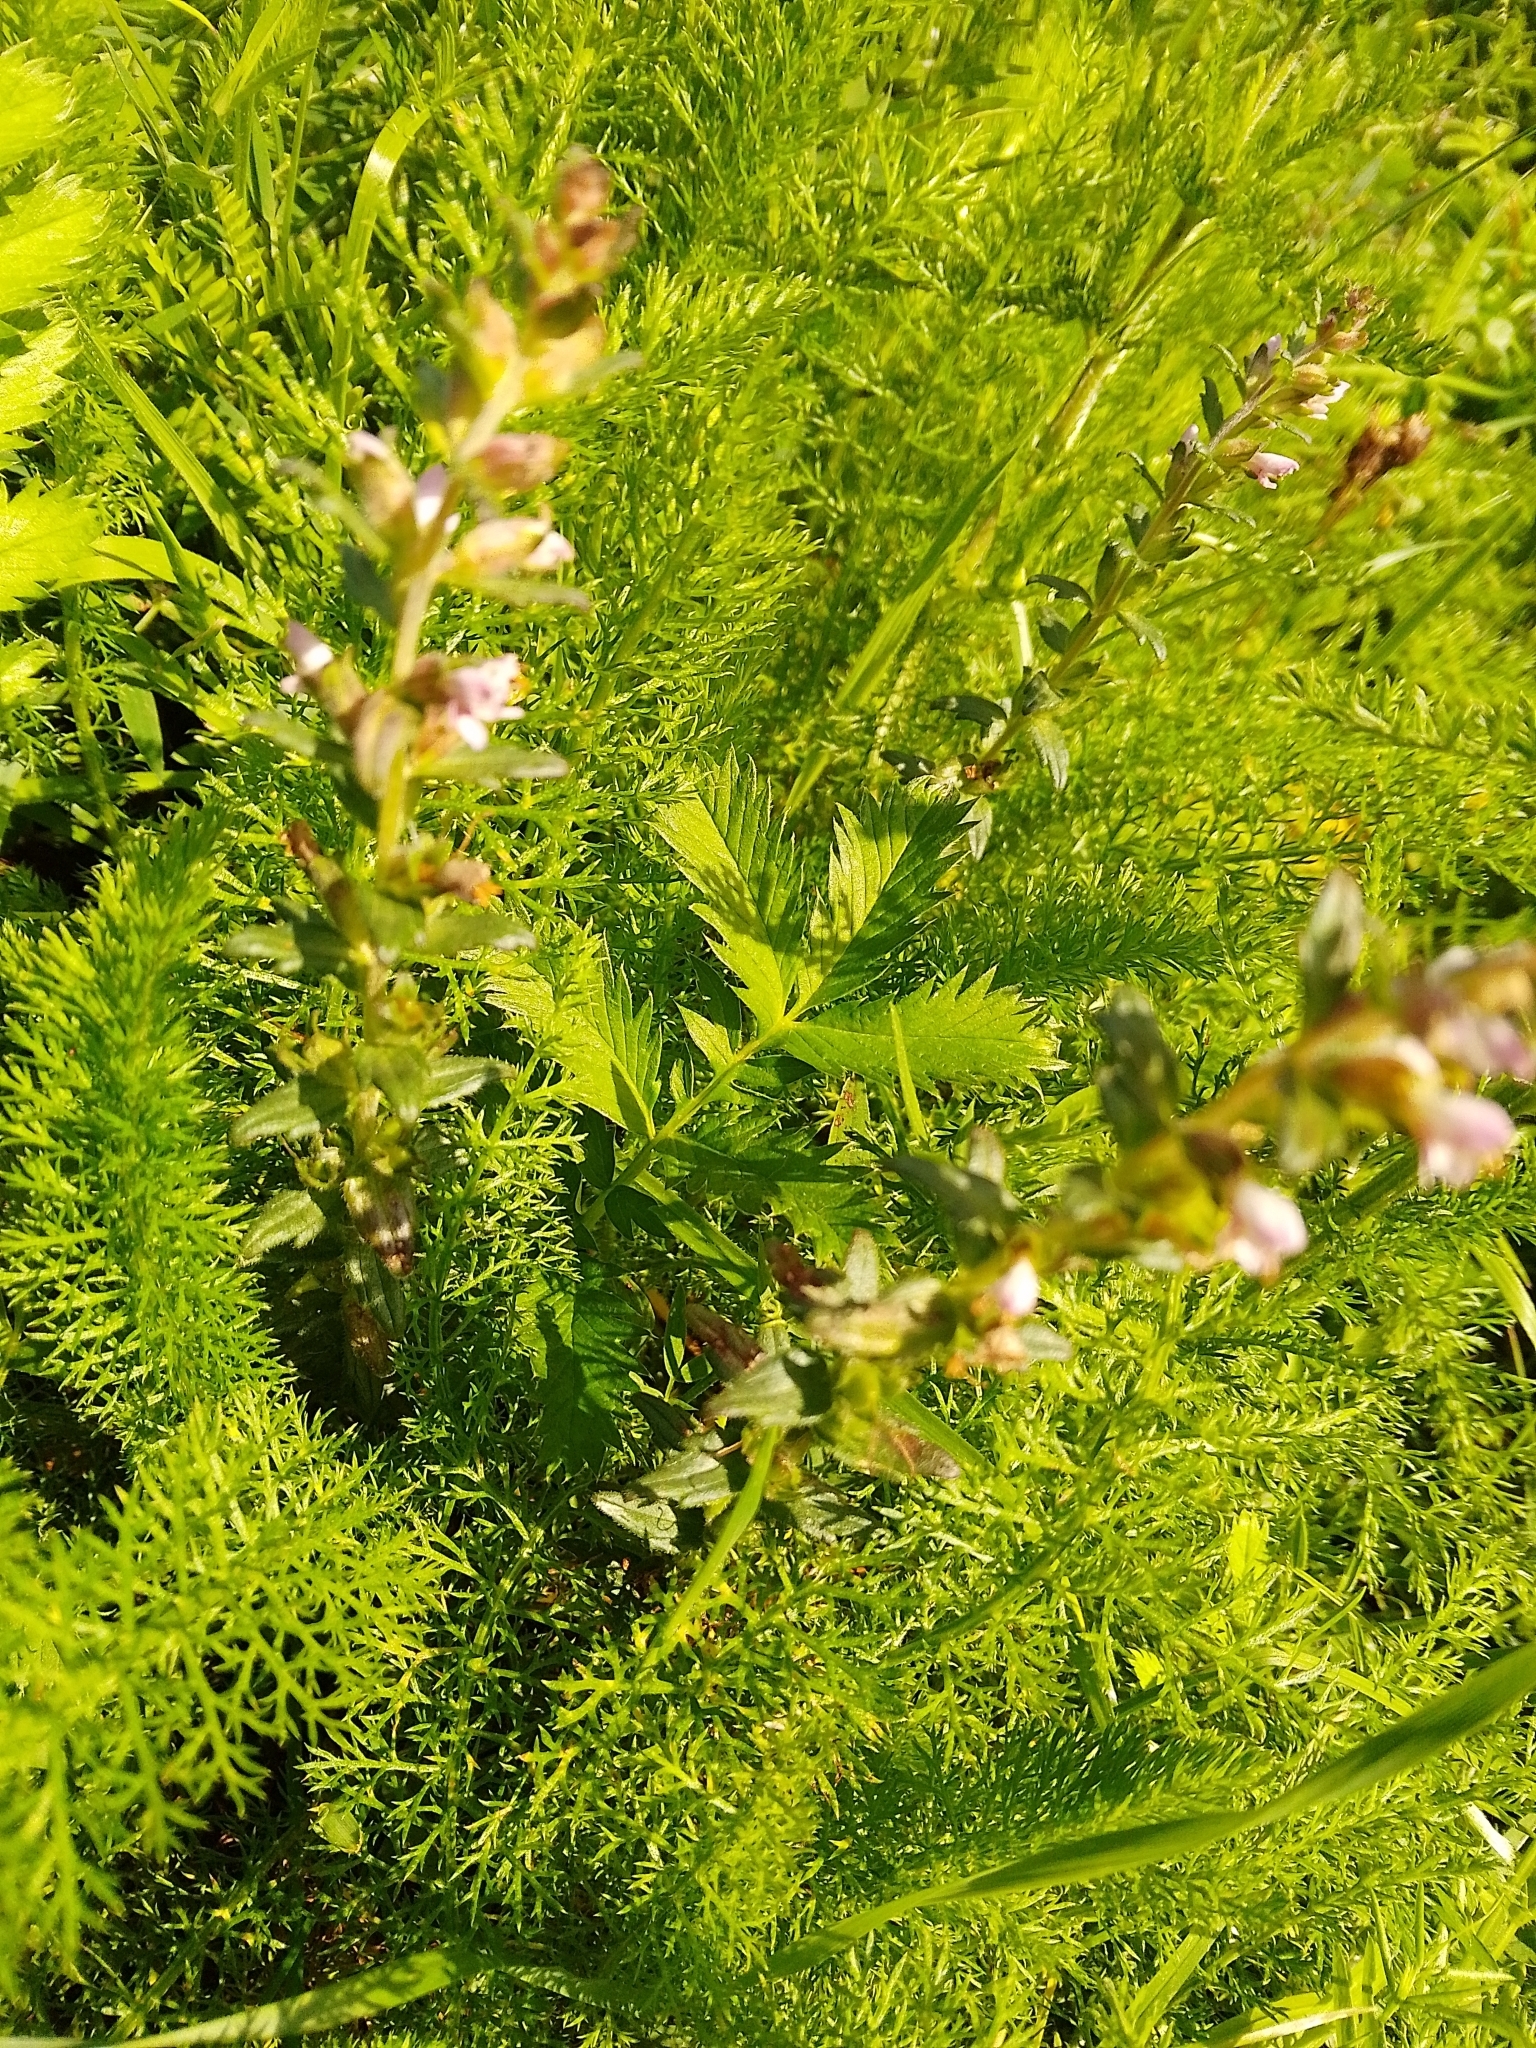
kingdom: Plantae
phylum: Tracheophyta
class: Magnoliopsida
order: Lamiales
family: Orobanchaceae
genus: Odontites
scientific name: Odontites vernus
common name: Red bartsia
